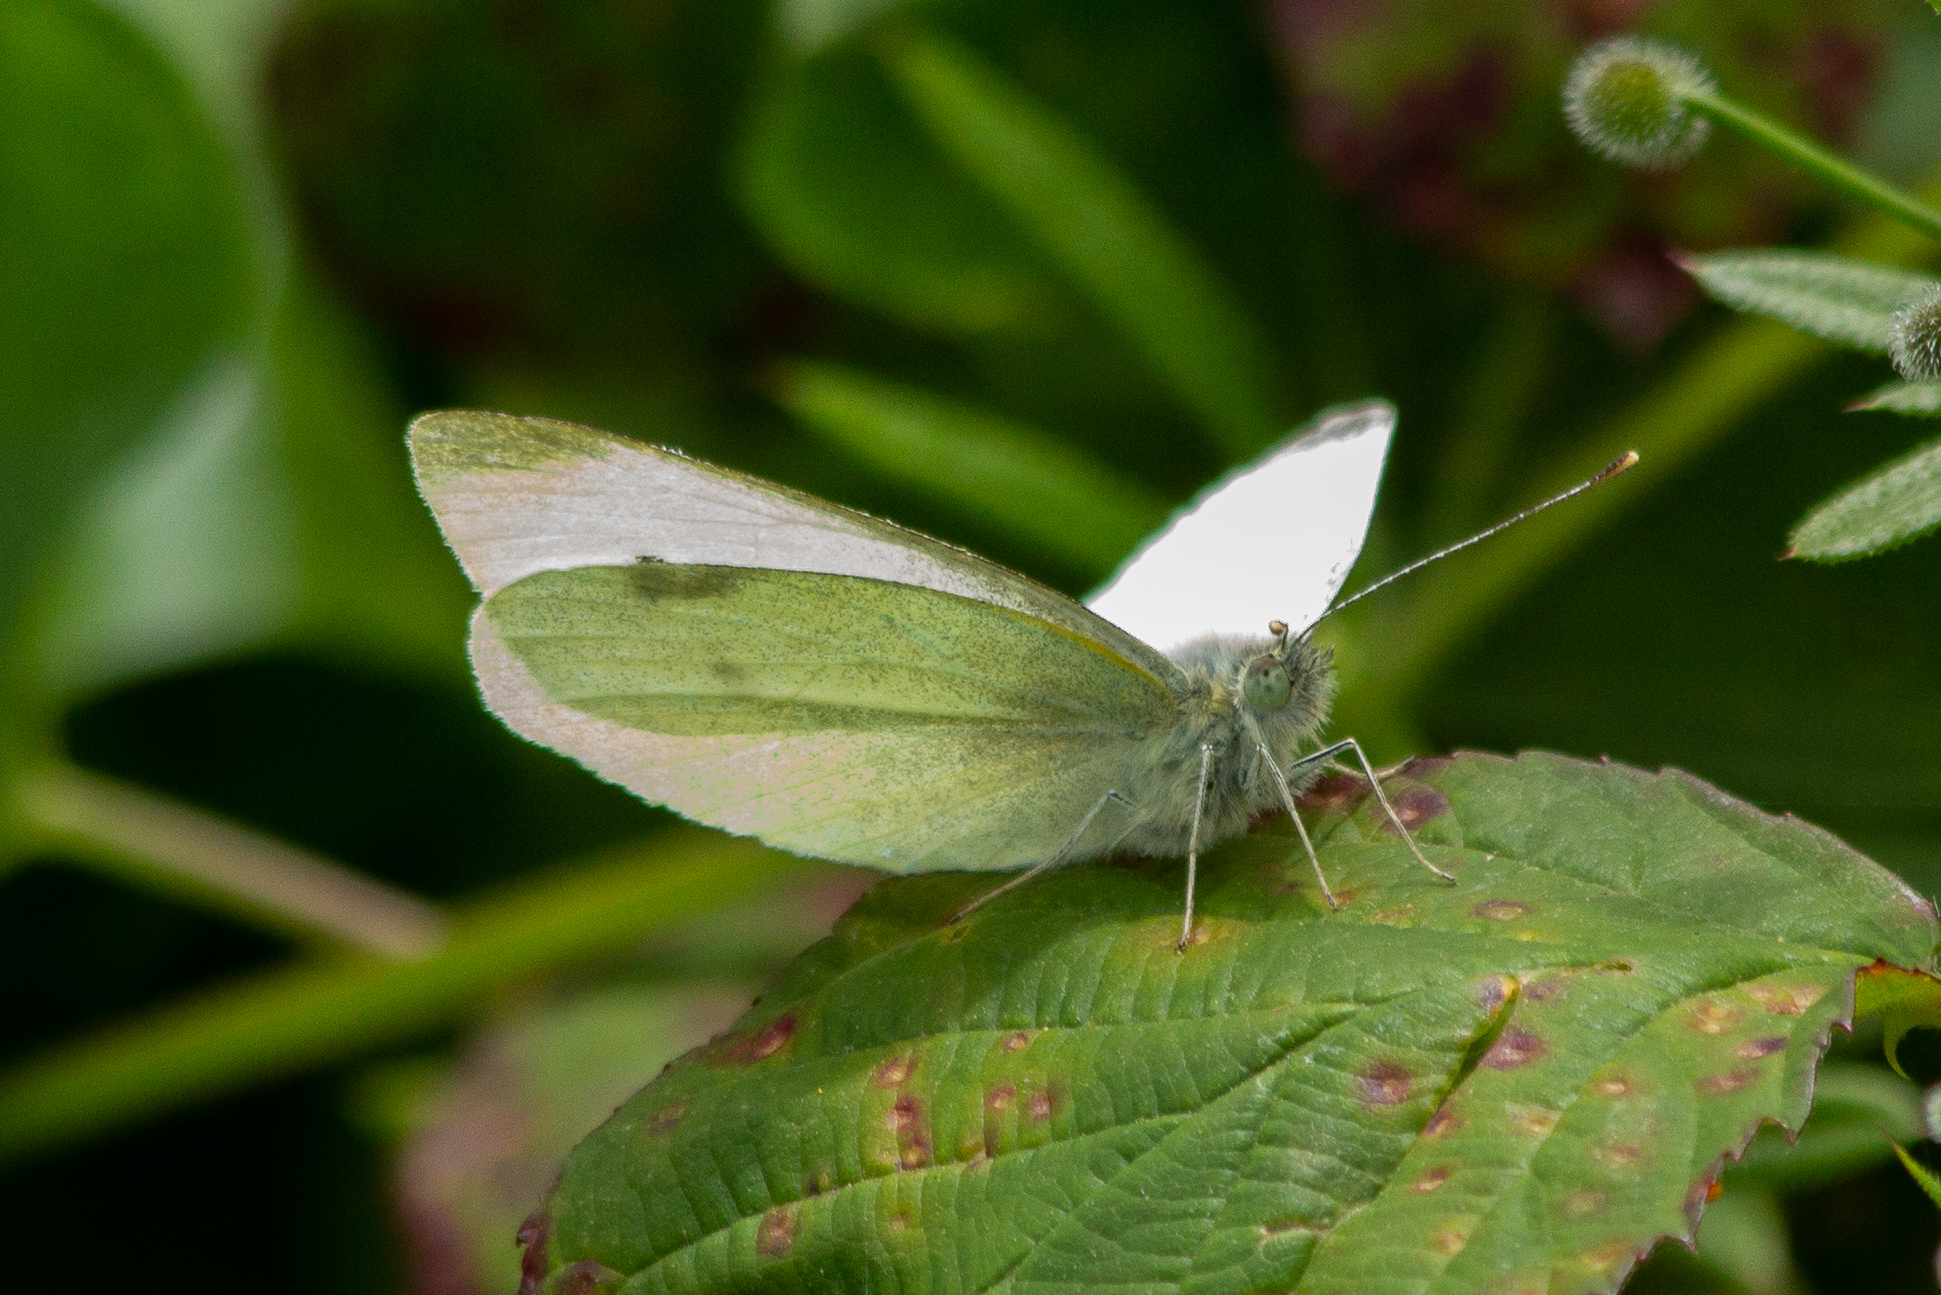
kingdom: Animalia
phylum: Arthropoda
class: Insecta
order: Lepidoptera
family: Pieridae
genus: Pieris
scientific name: Pieris rapae
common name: Small white
